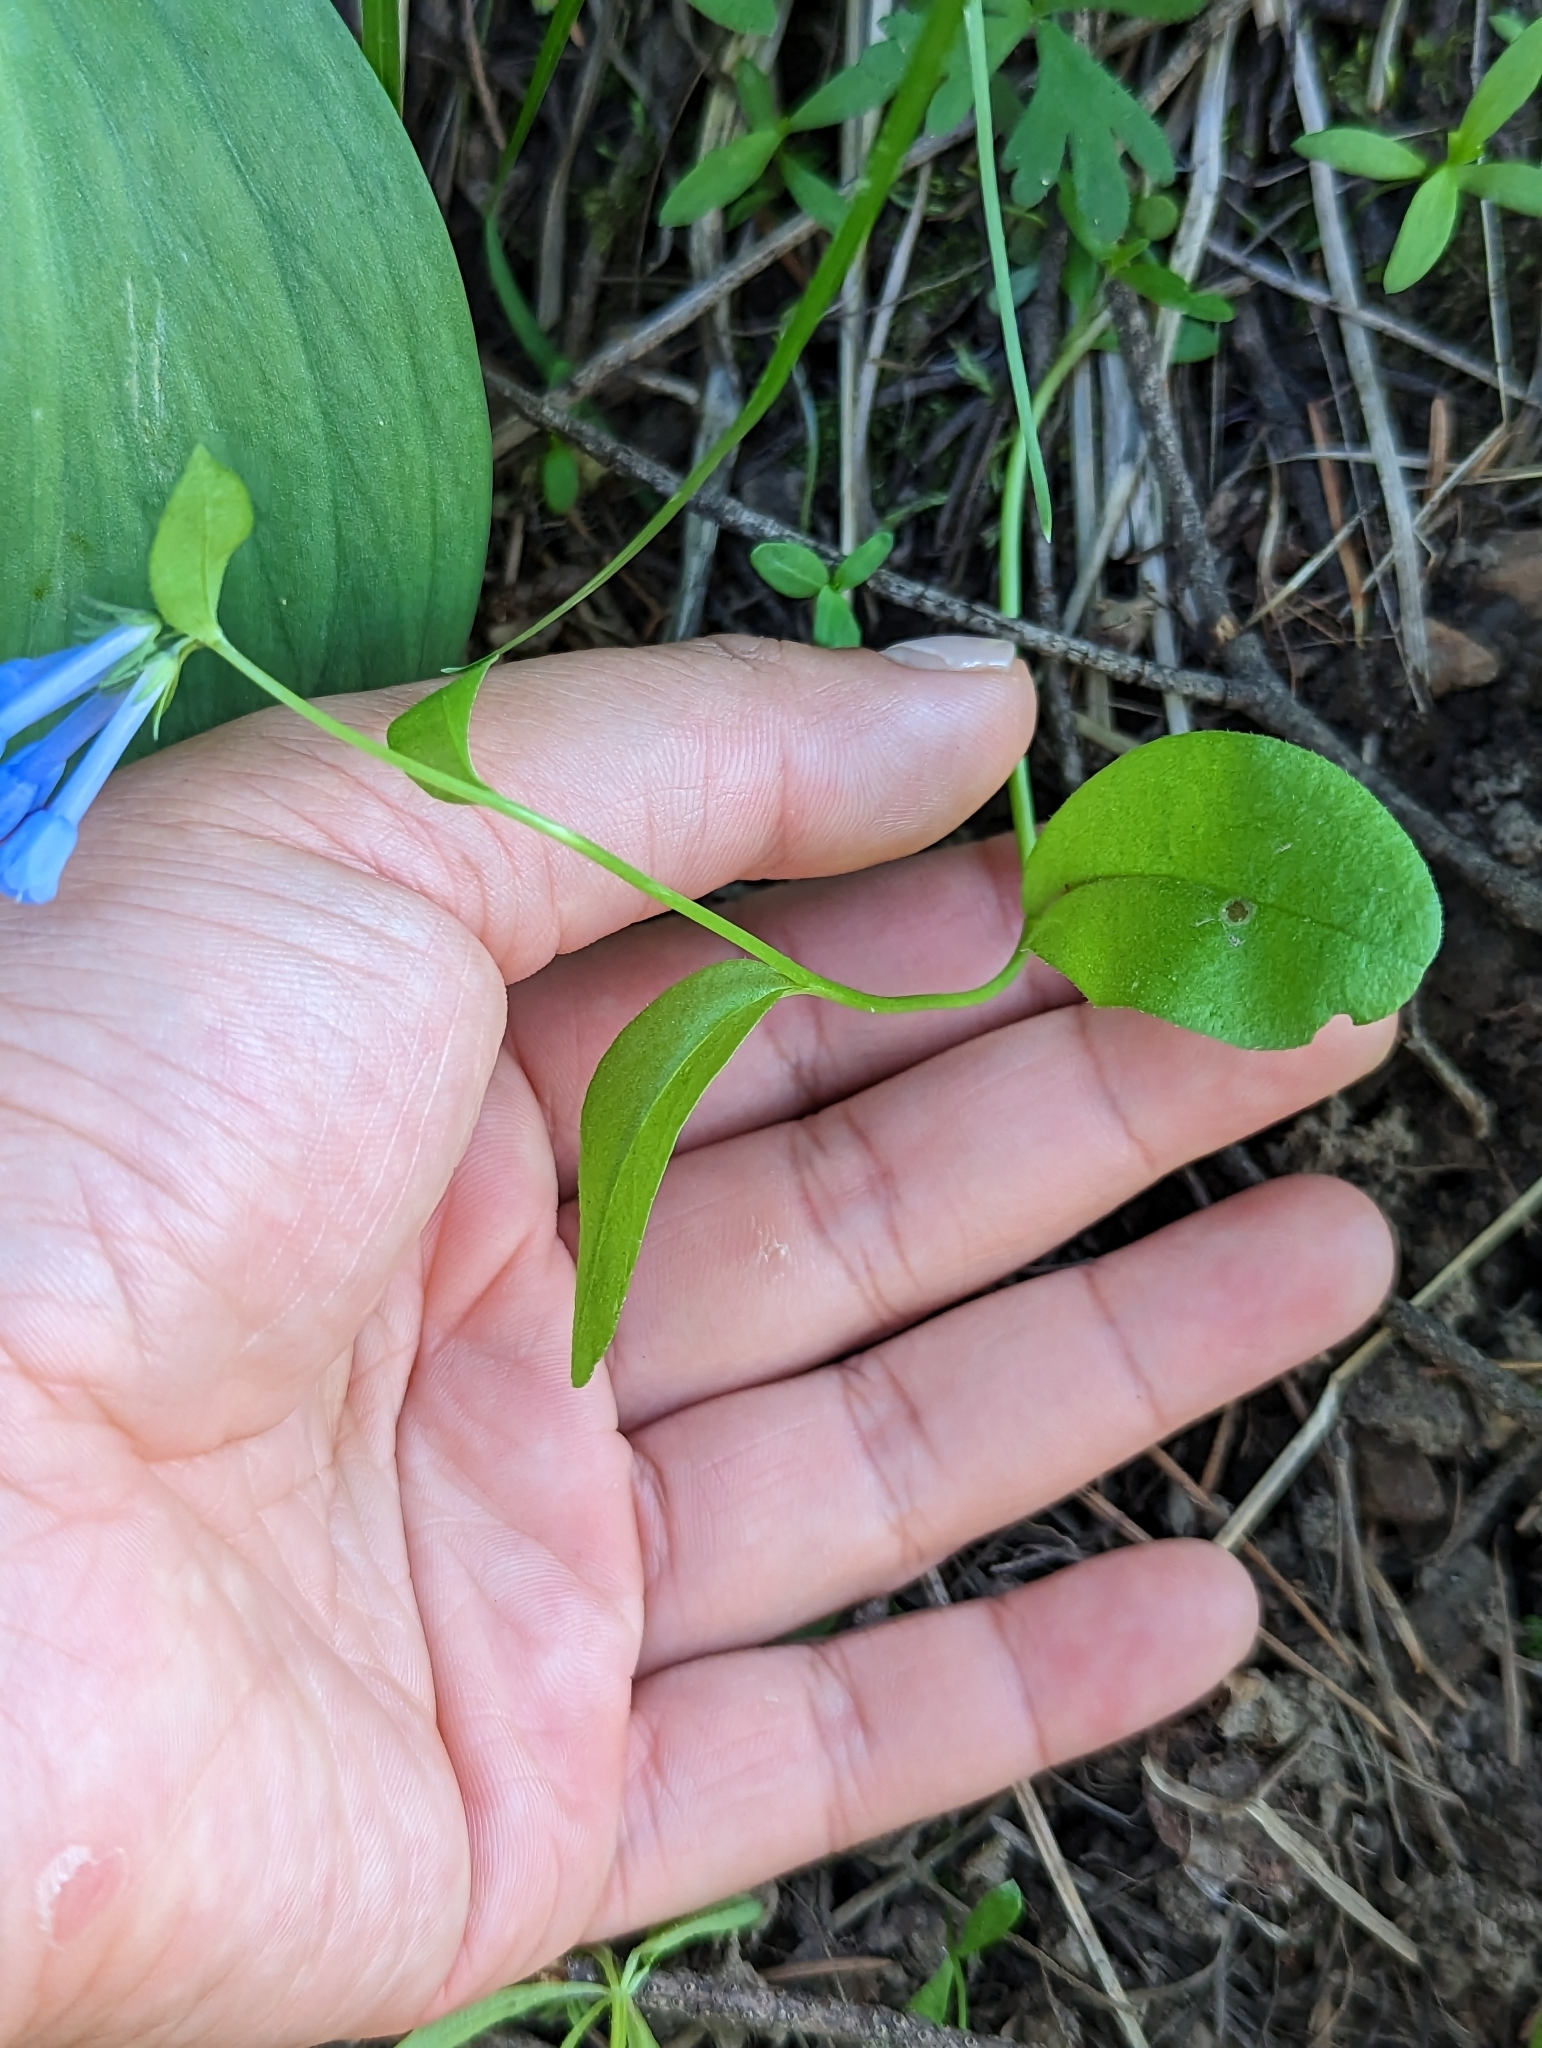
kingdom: Plantae
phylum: Tracheophyta
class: Magnoliopsida
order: Boraginales
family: Boraginaceae
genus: Mertensia
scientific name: Mertensia longiflora
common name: Large-flowered bluebells
